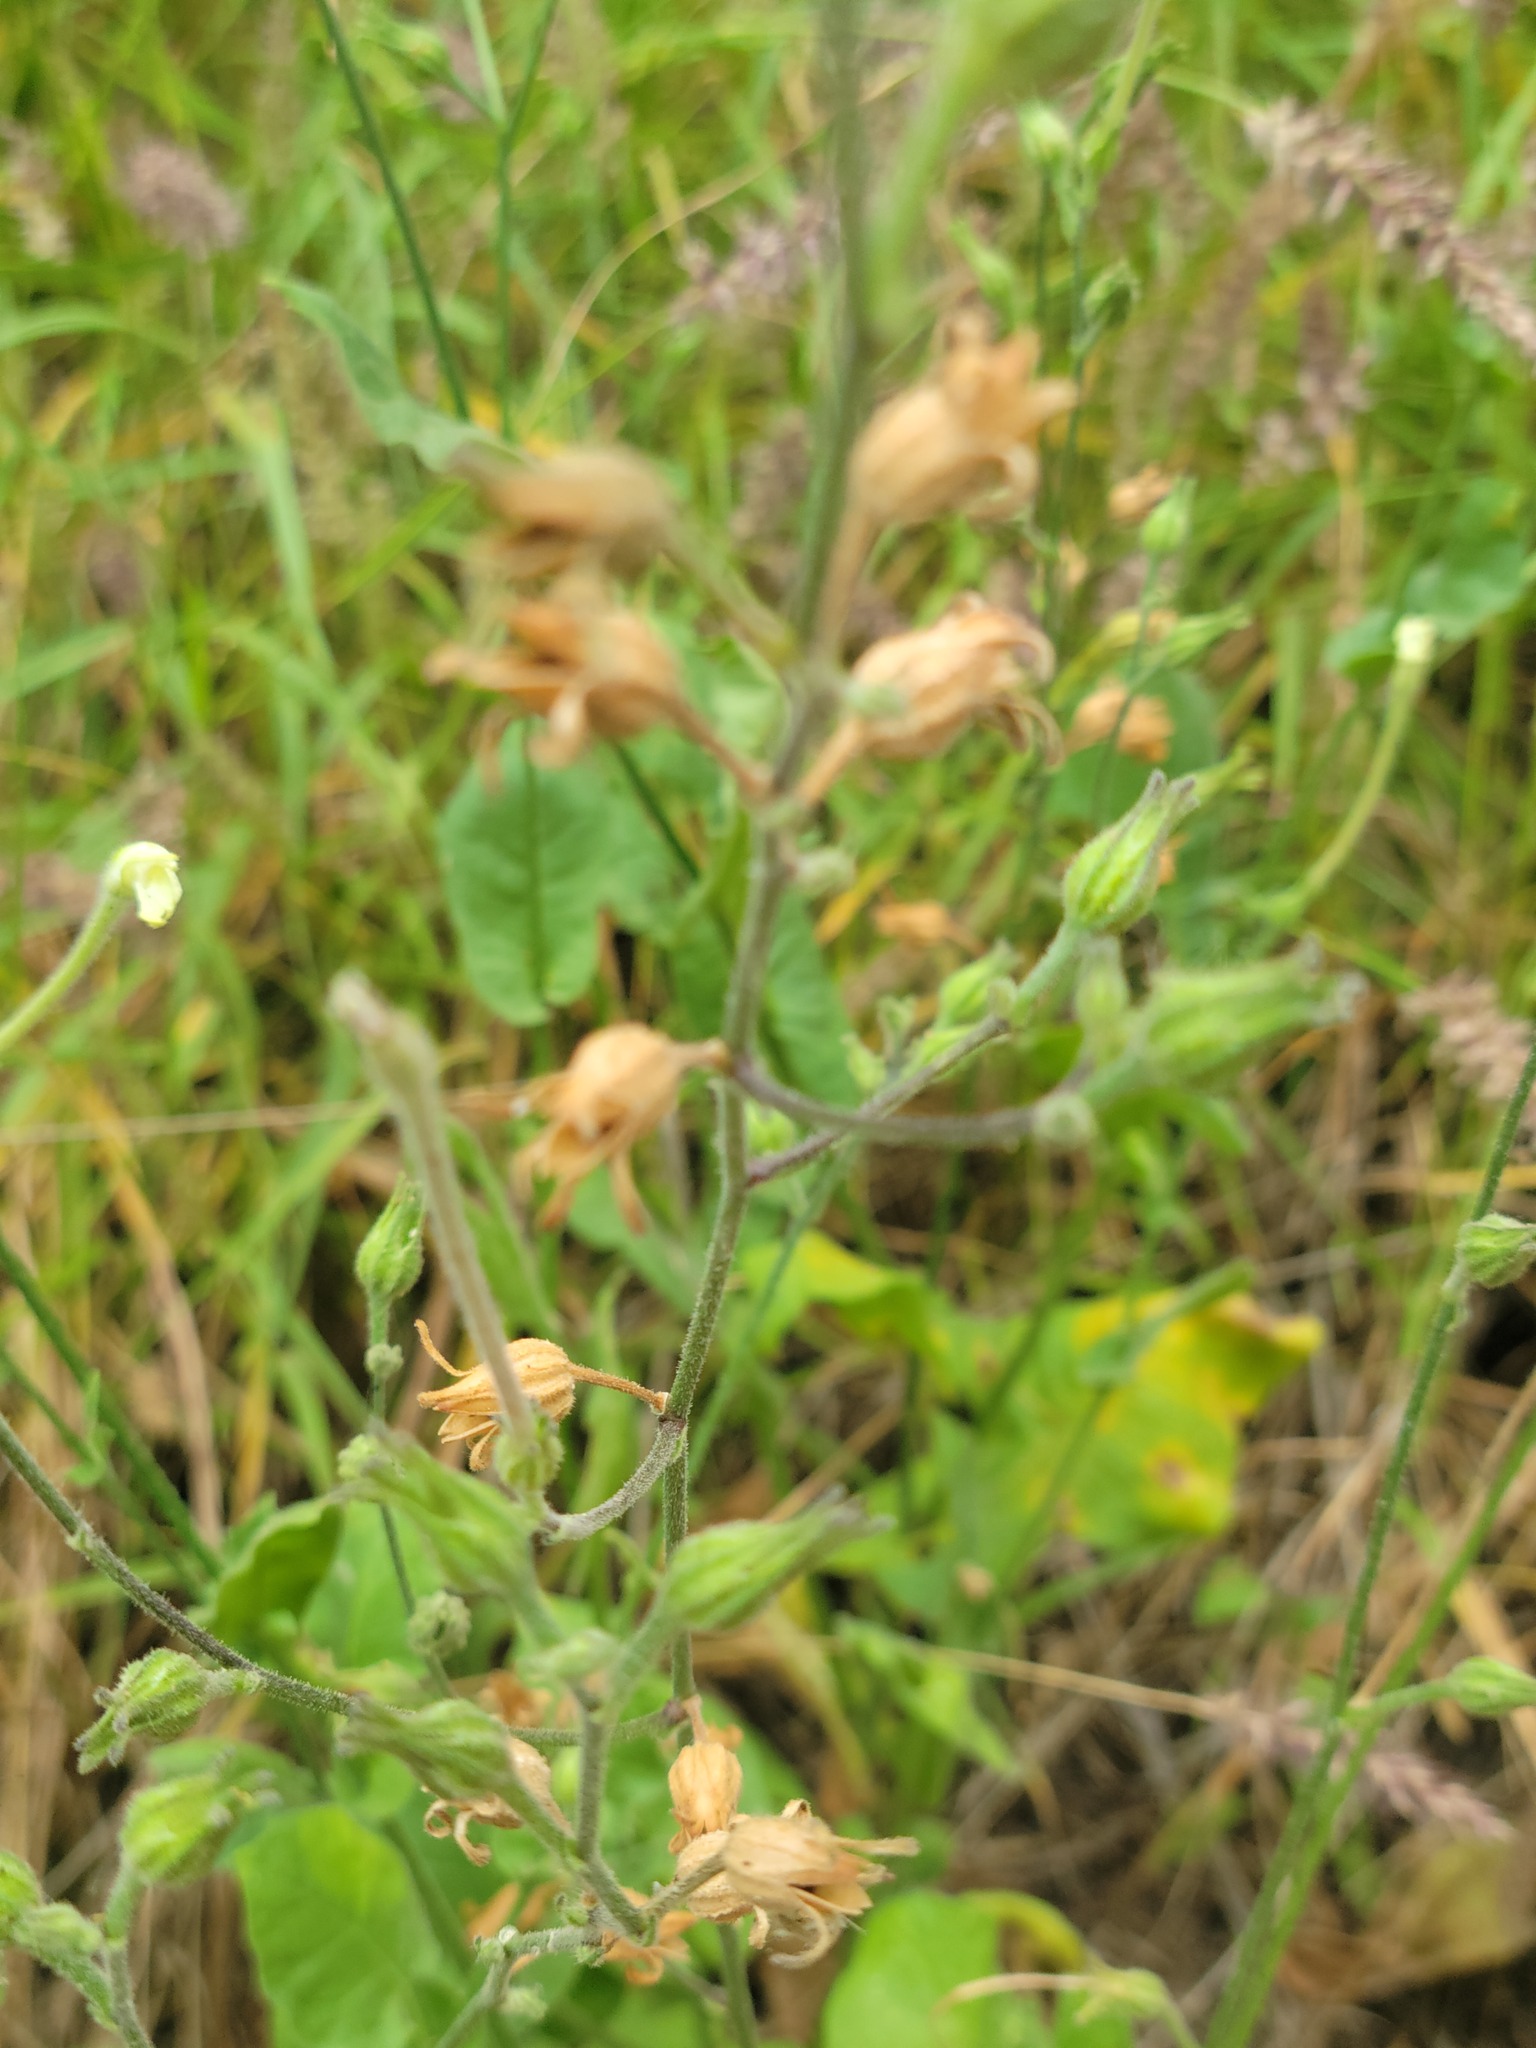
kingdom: Plantae
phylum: Tracheophyta
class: Magnoliopsida
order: Solanales
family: Solanaceae
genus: Nicotiana
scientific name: Nicotiana repanda
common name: Fiddle-leaf tobacco
